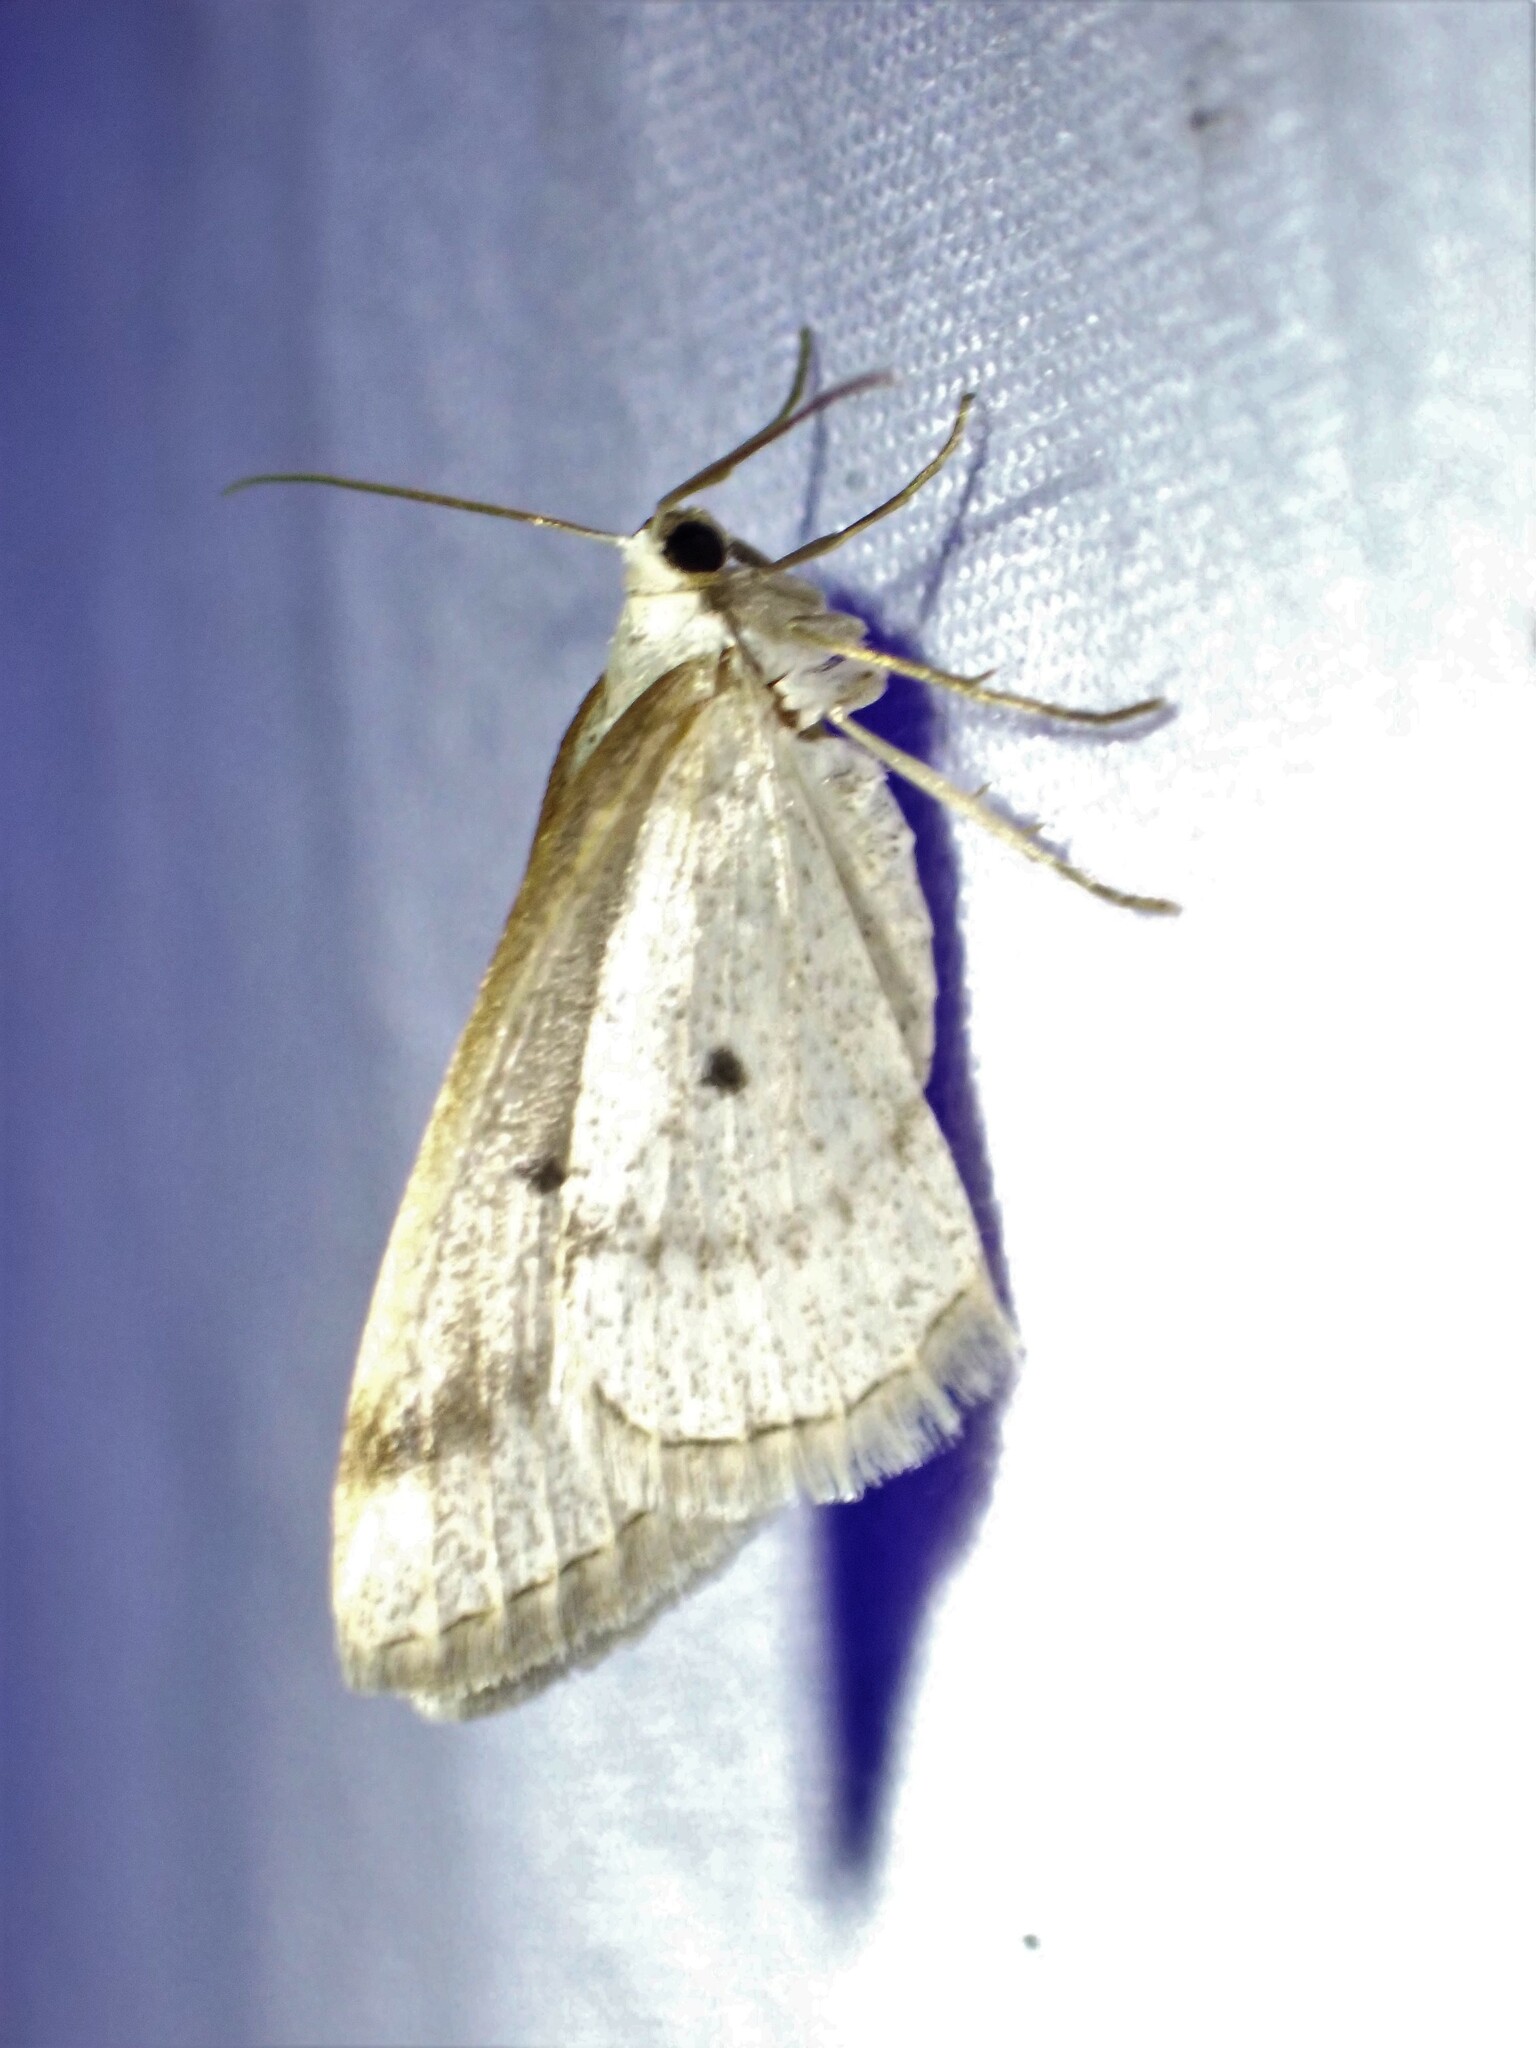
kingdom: Animalia
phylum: Arthropoda
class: Insecta
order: Lepidoptera
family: Geometridae
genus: Lomographa
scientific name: Lomographa glomeraria
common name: Gray spring moth
